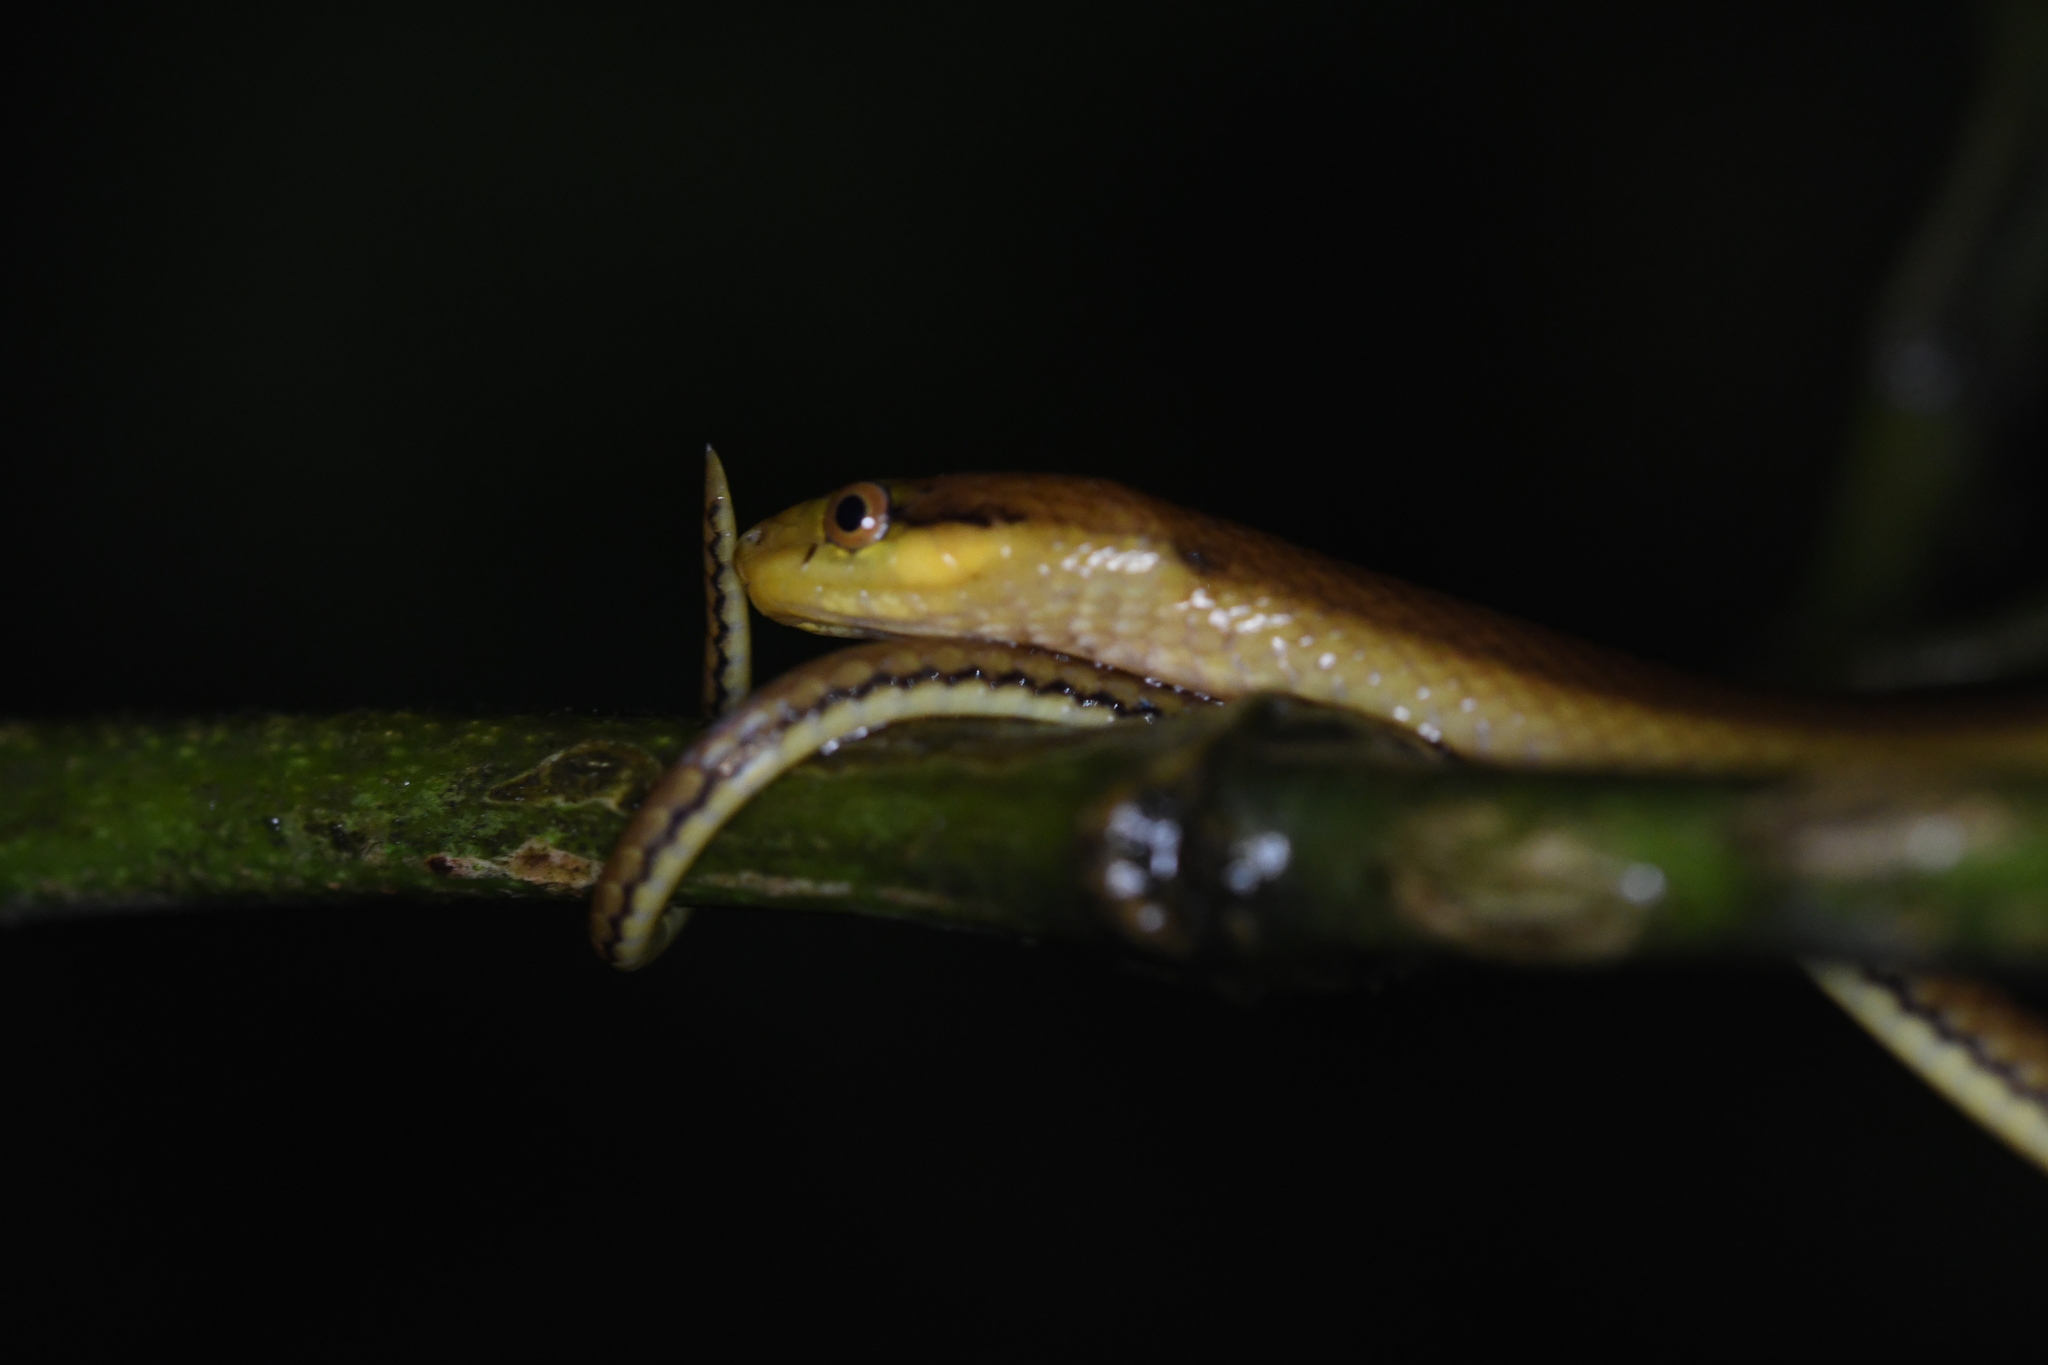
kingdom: Animalia
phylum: Chordata
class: Squamata
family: Pseudoxyrhophiidae
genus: Compsophis
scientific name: Compsophis laphystius
